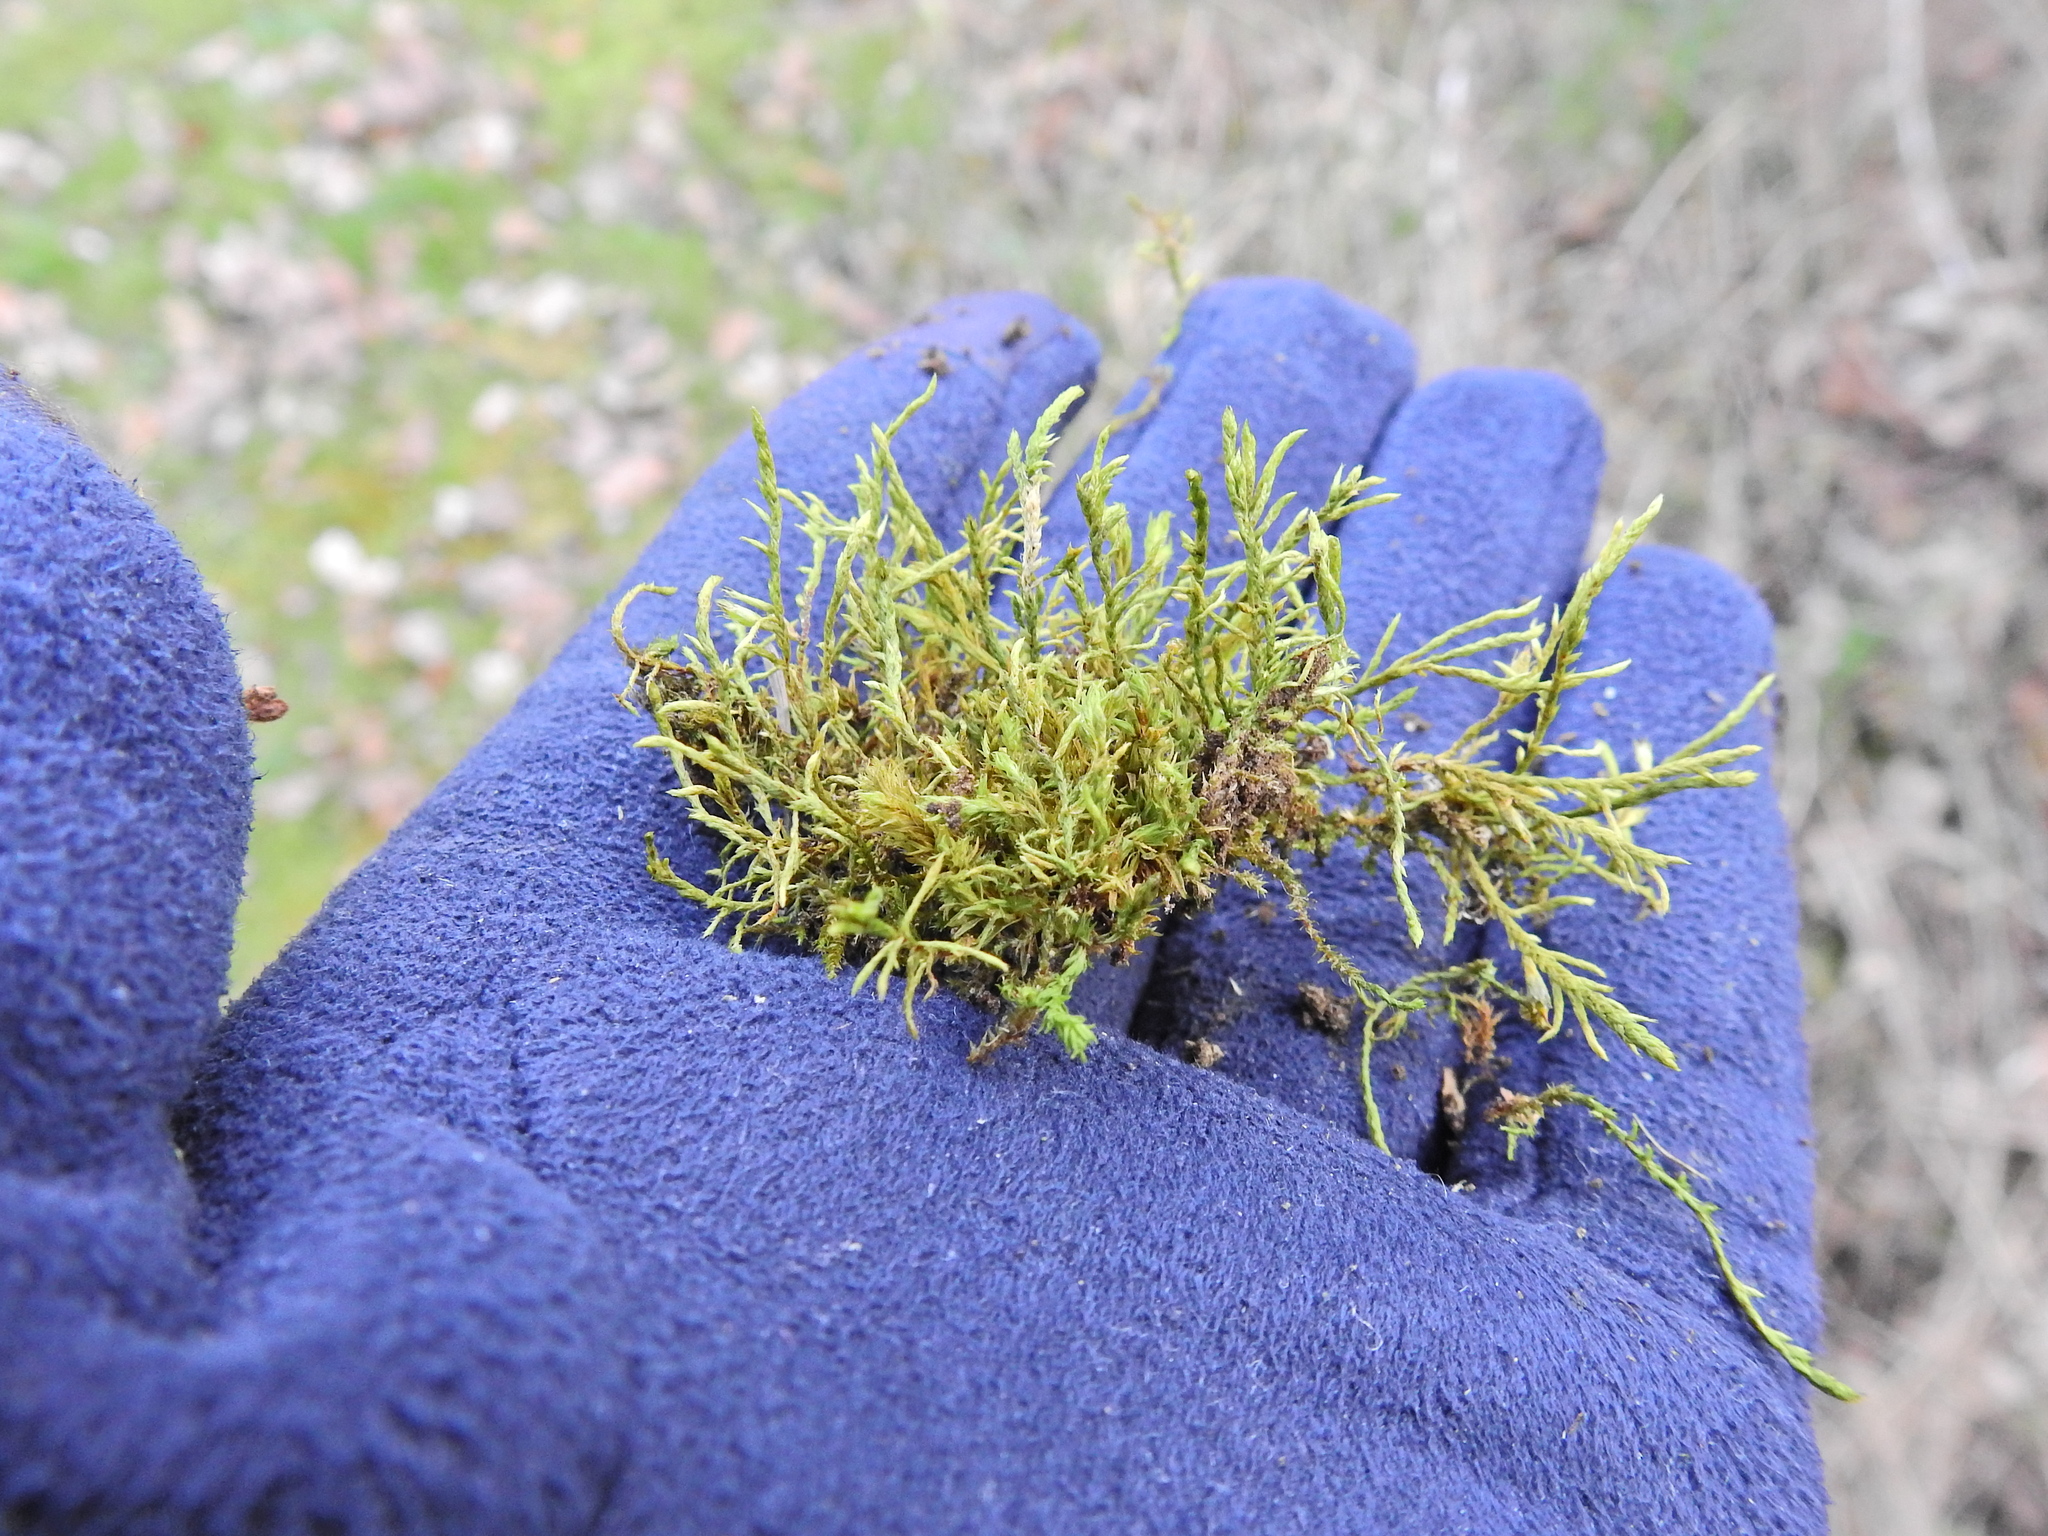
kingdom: Plantae
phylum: Bryophyta
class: Bryopsida
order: Hypnales
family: Cryphaeaceae
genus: Cryphaea
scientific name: Cryphaea heteromalla
